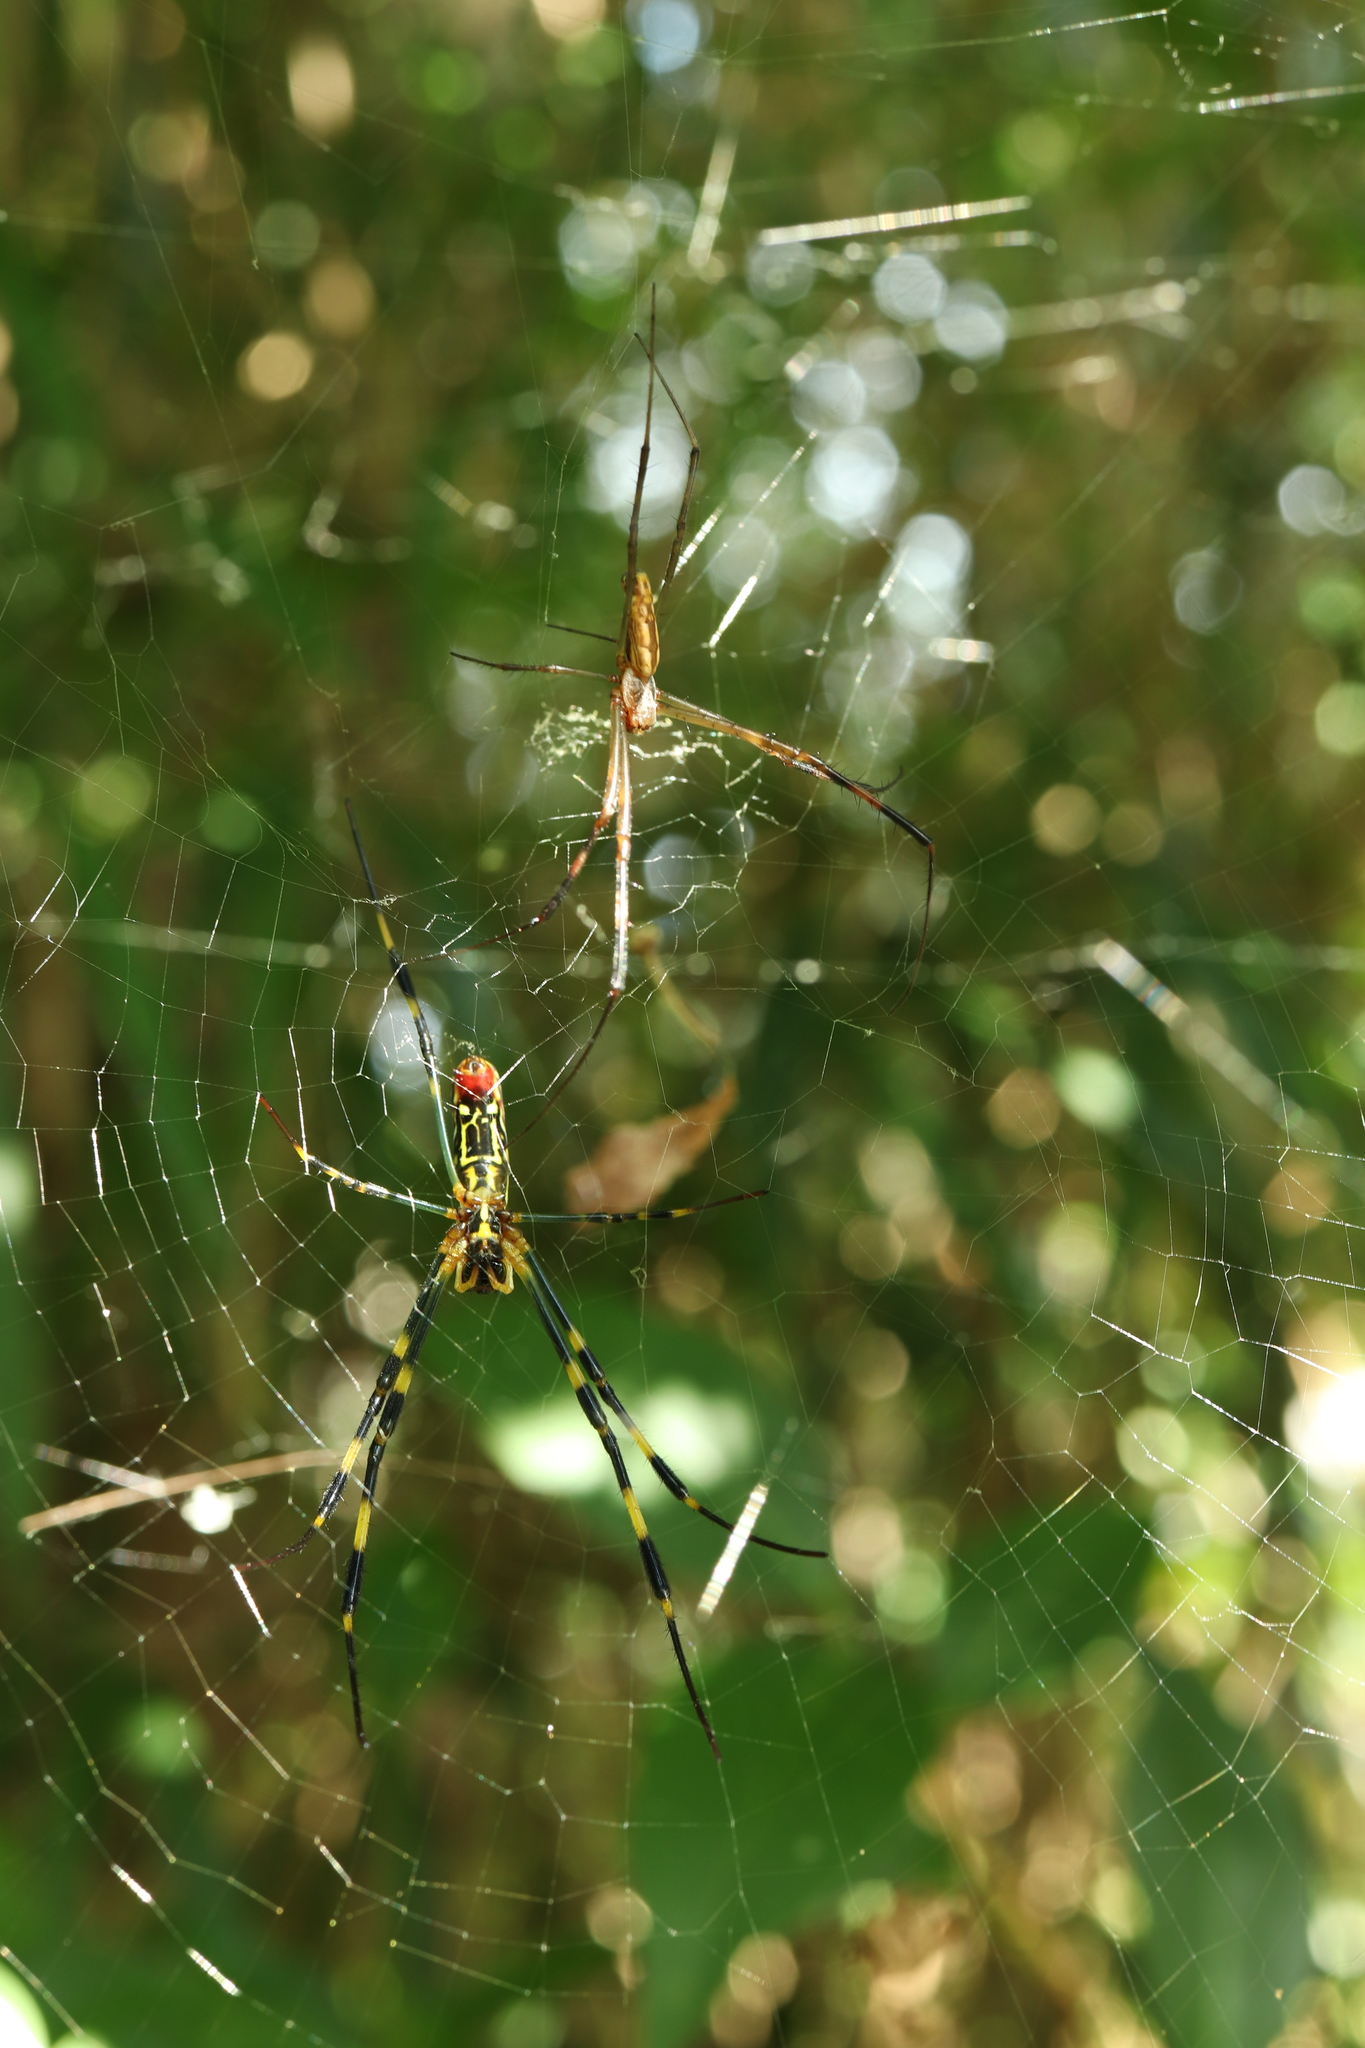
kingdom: Animalia
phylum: Arthropoda
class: Arachnida
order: Araneae
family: Araneidae
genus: Trichonephila
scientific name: Trichonephila clavata
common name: Jorō spider
